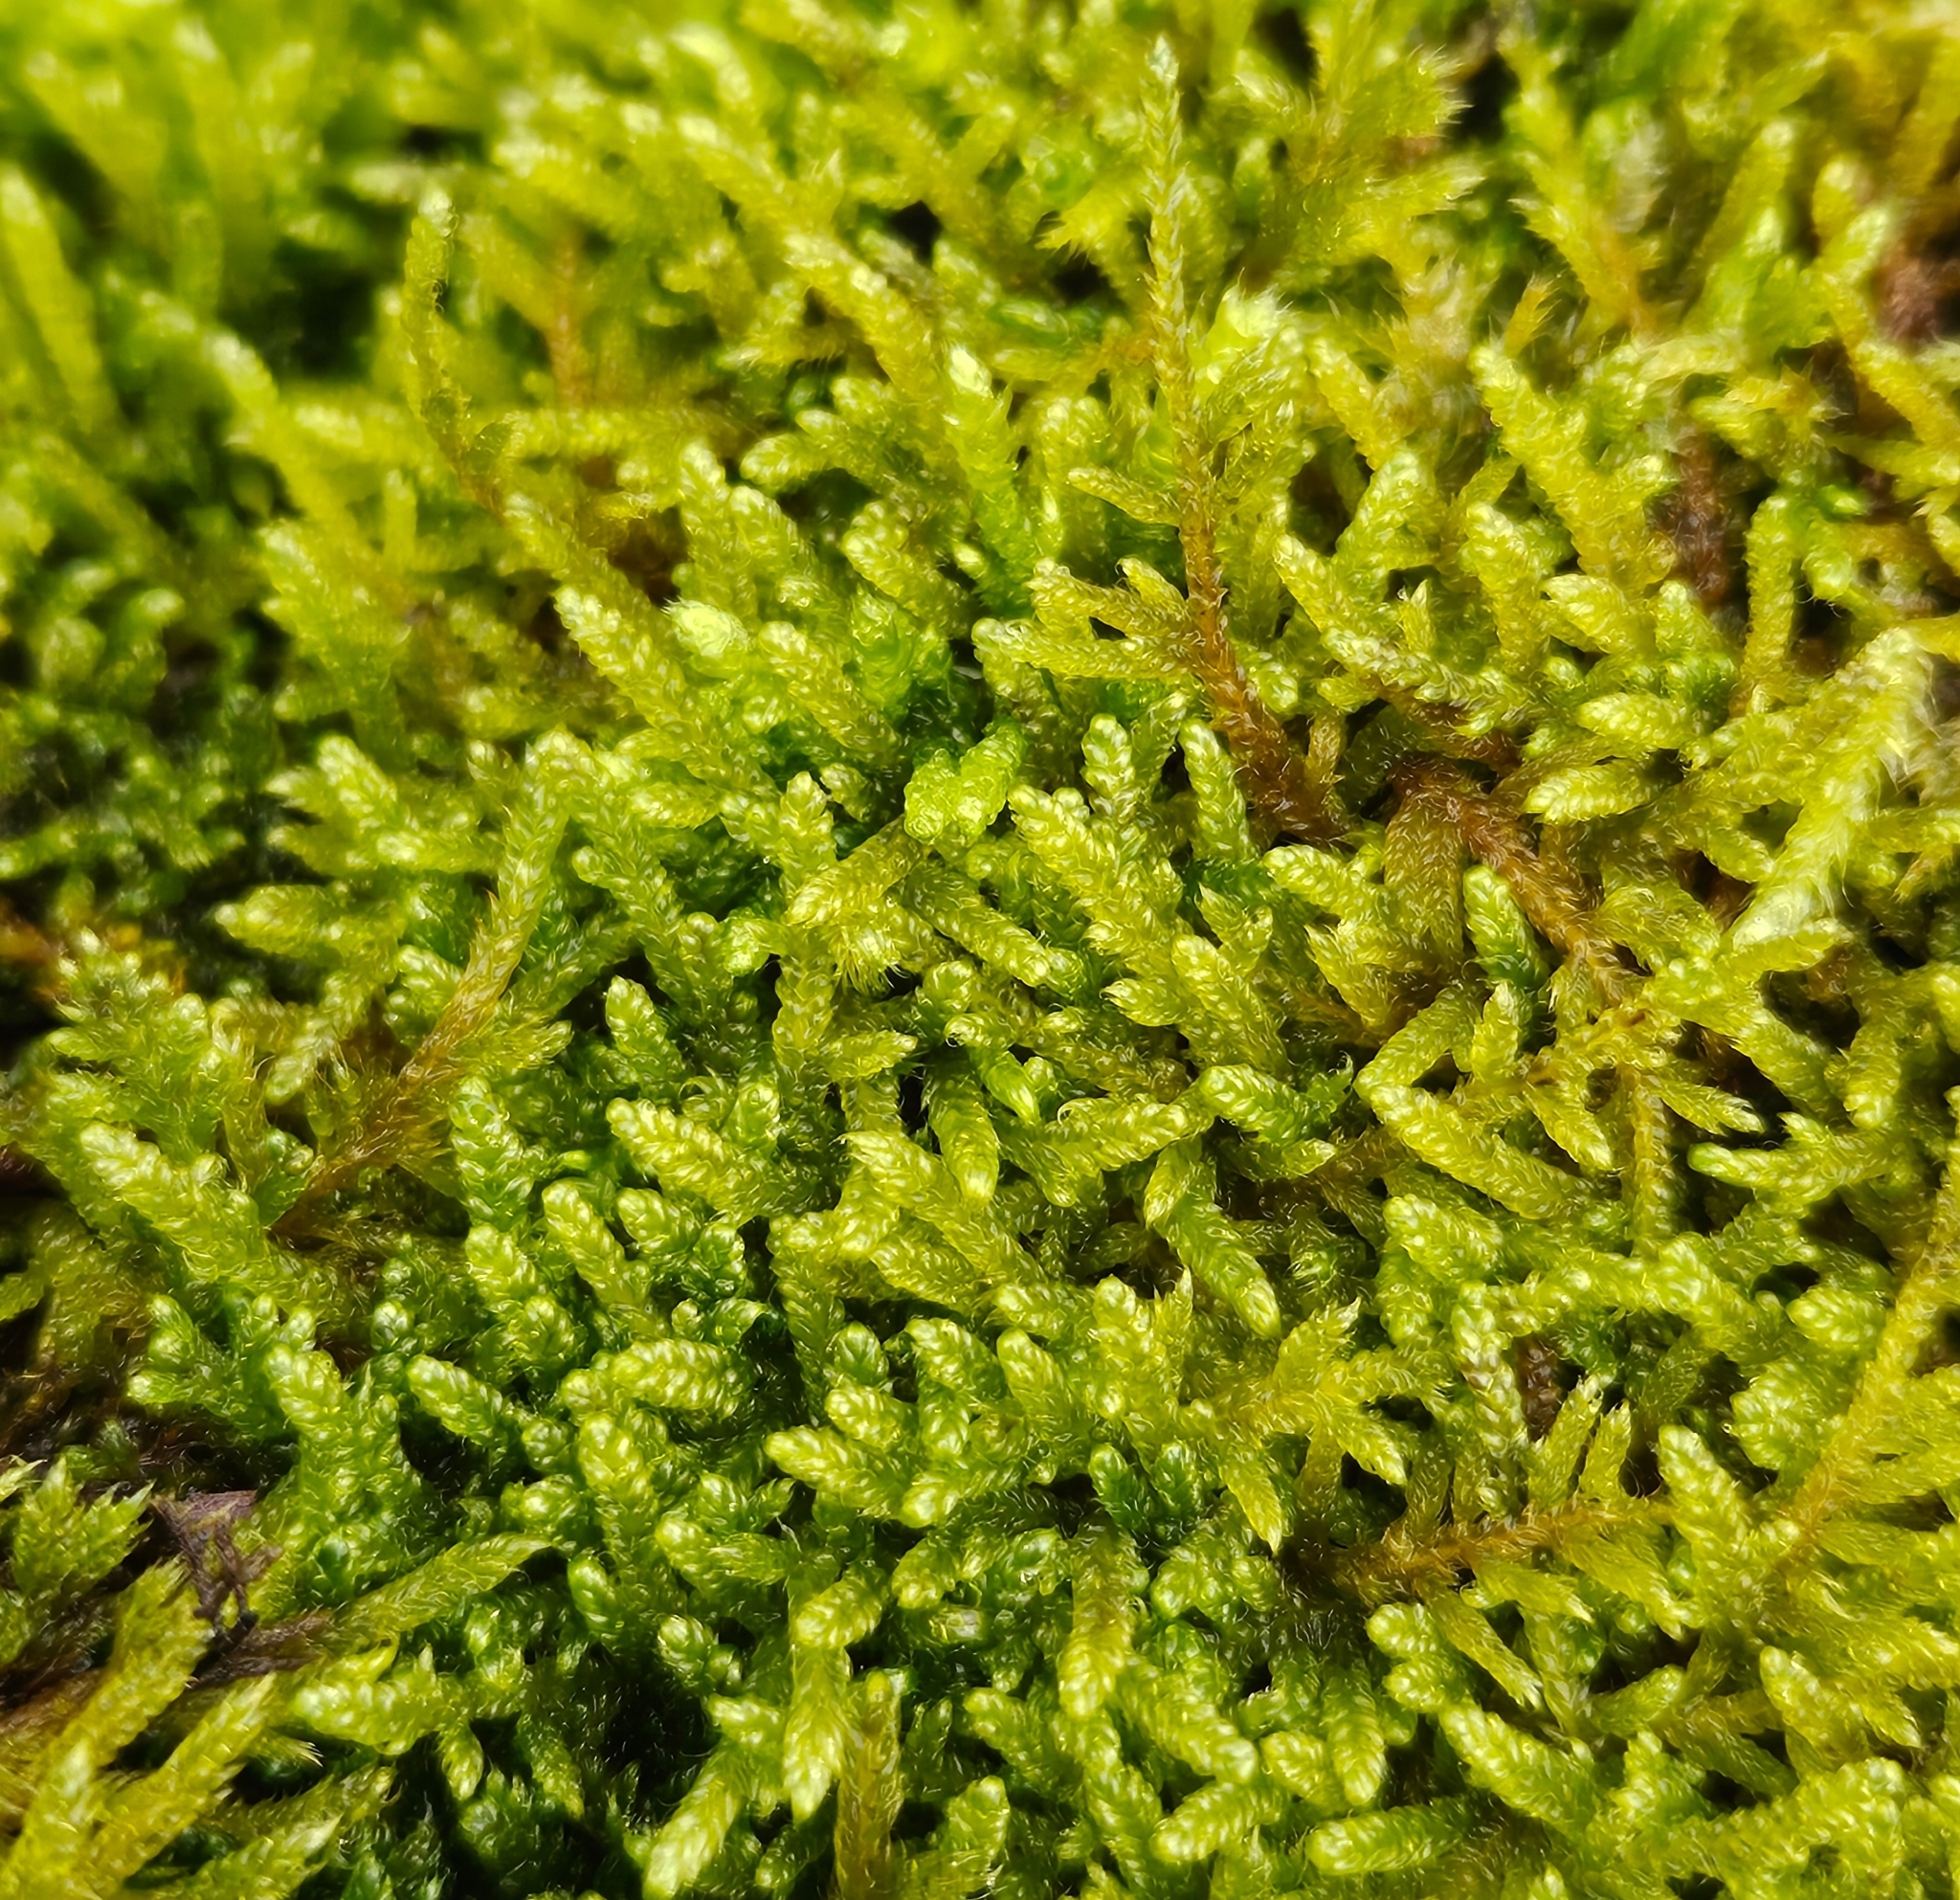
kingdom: Plantae
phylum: Bryophyta
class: Bryopsida
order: Hypnales
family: Hypnaceae
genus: Hypnum
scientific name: Hypnum cupressiforme
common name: Cypress-leaved plait-moss
